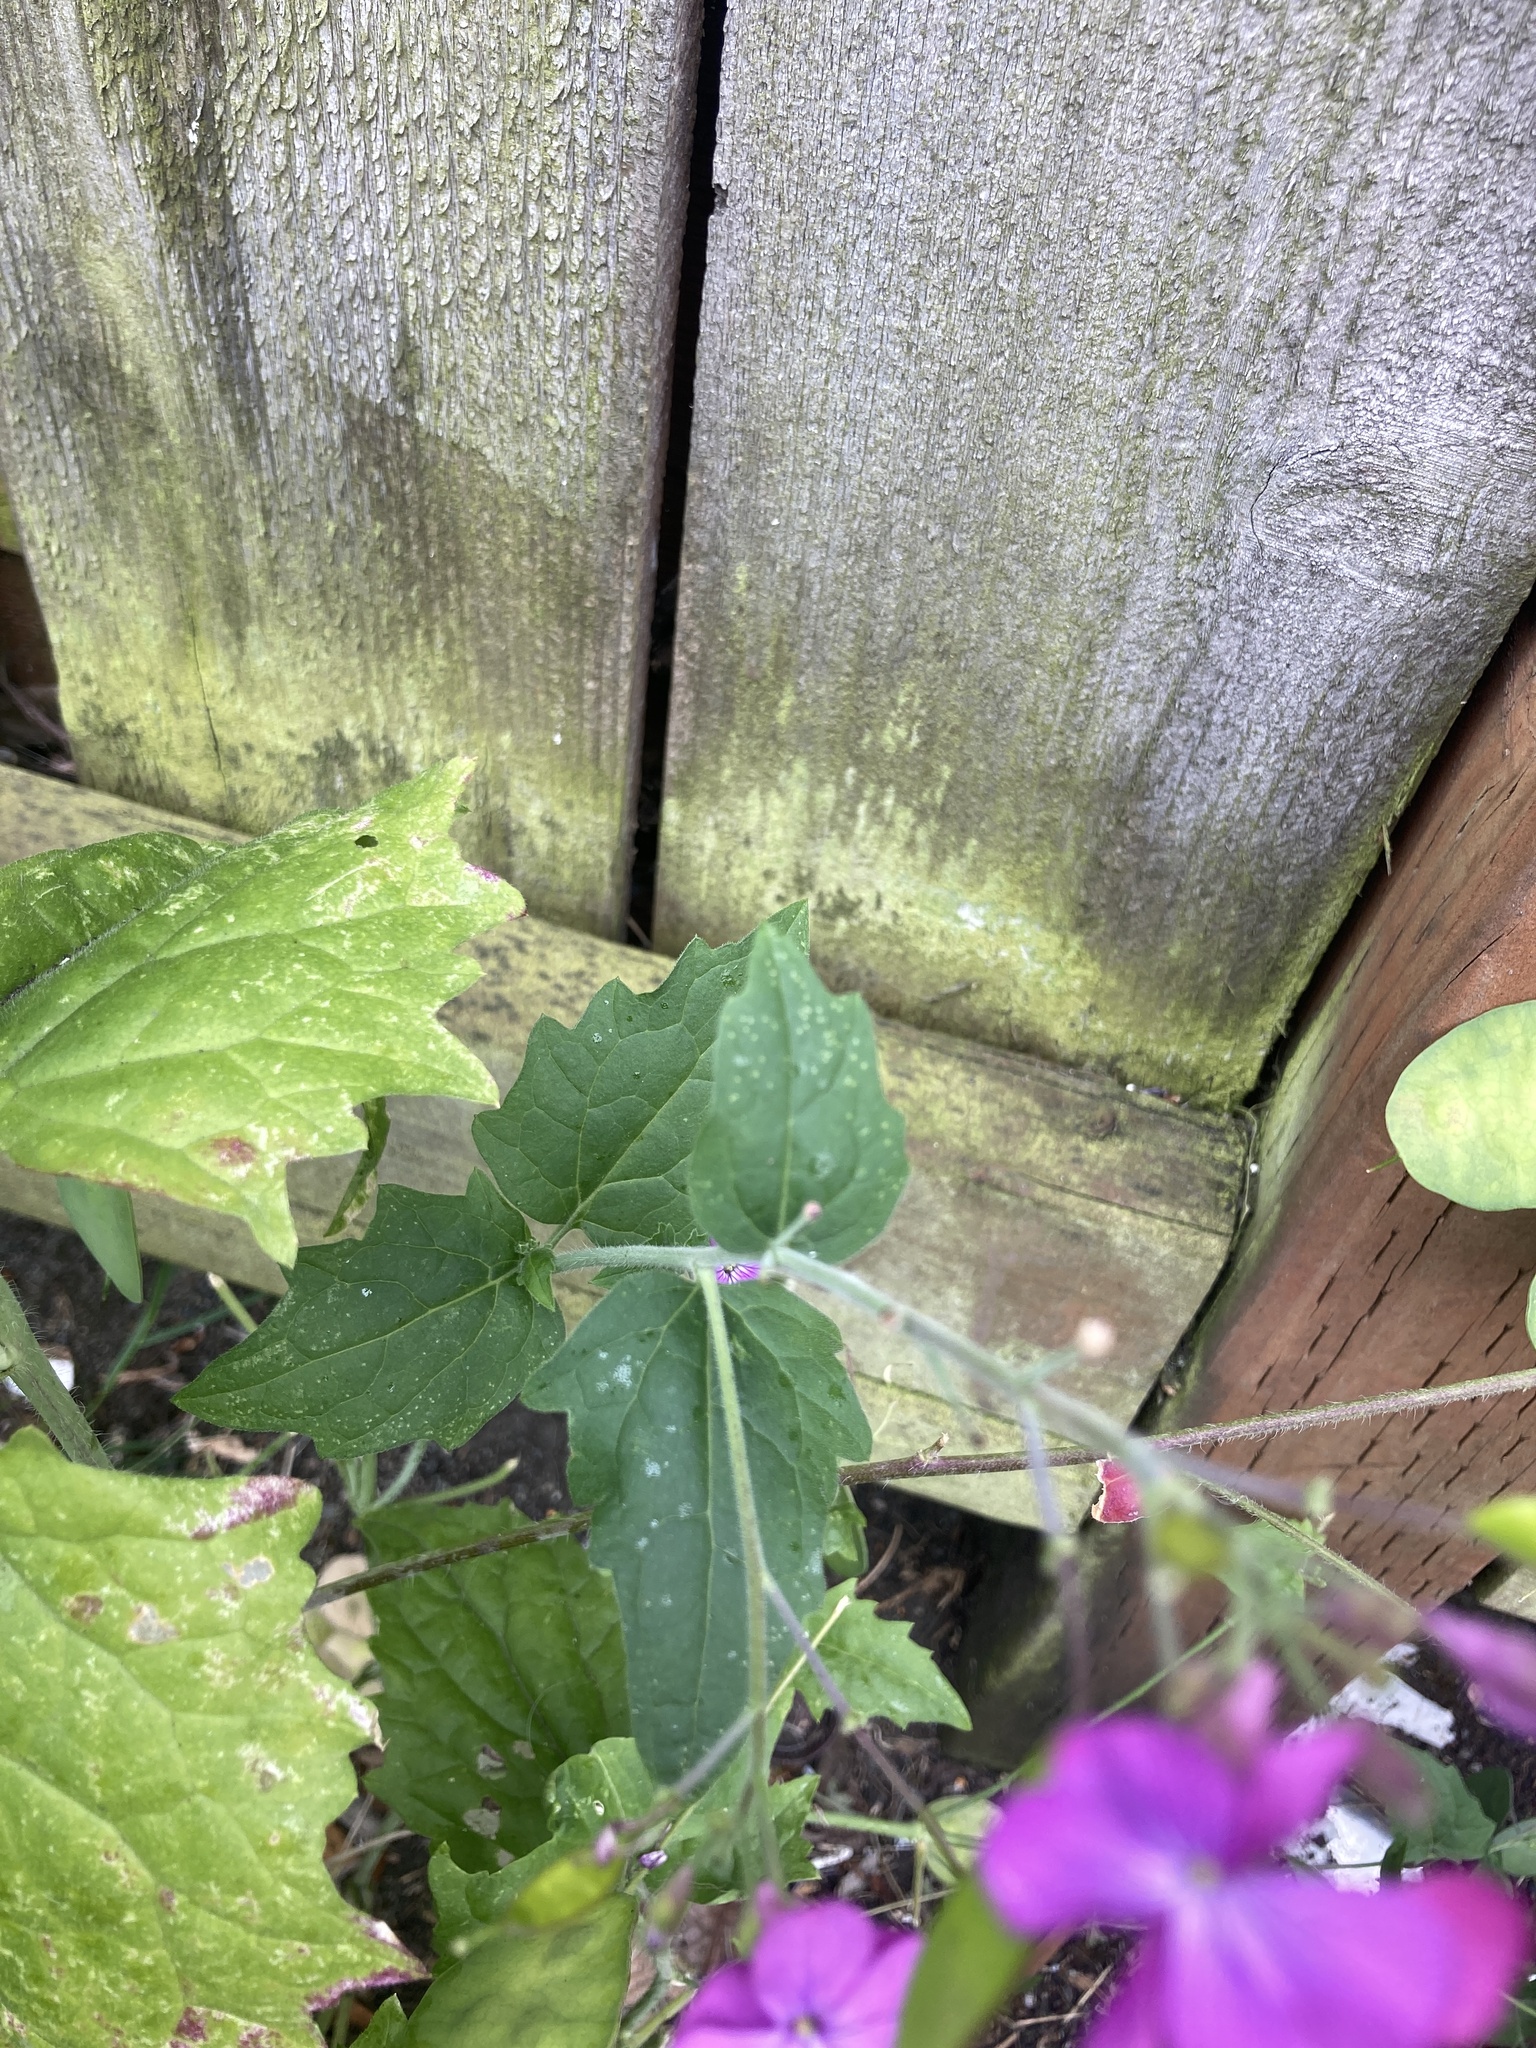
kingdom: Plantae
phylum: Tracheophyta
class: Magnoliopsida
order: Brassicales
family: Brassicaceae
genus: Lunaria
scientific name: Lunaria annua
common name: Honesty
